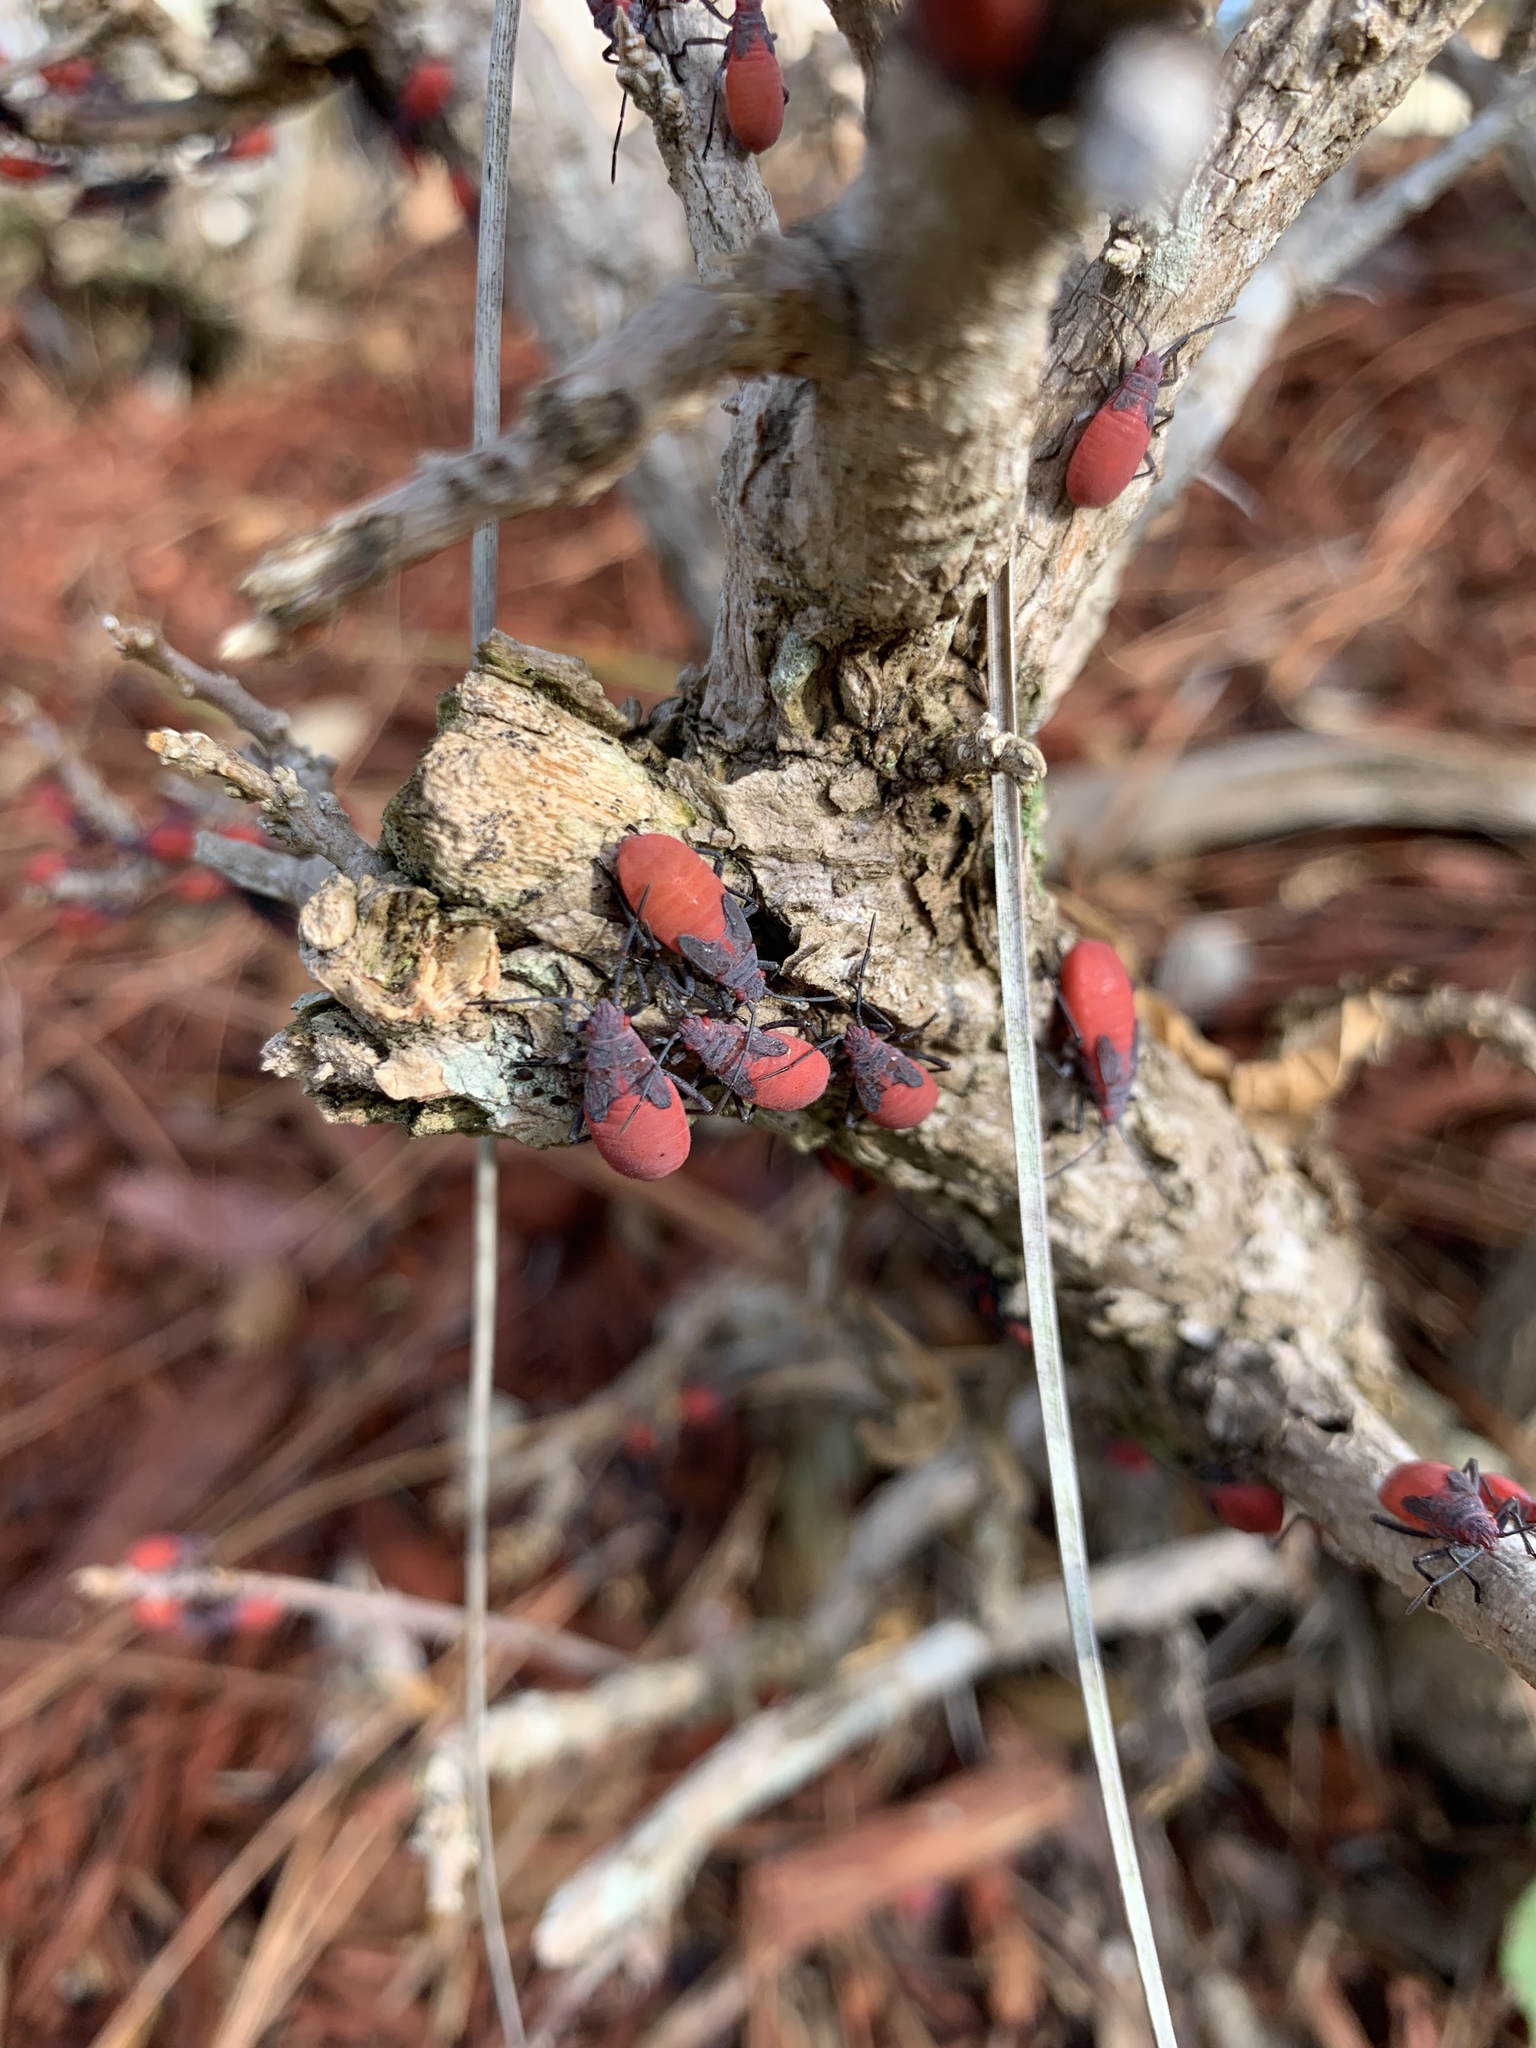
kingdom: Animalia
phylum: Arthropoda
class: Insecta
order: Hemiptera
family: Rhopalidae
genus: Jadera
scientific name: Jadera haematoloma
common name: Red-shouldered bug
